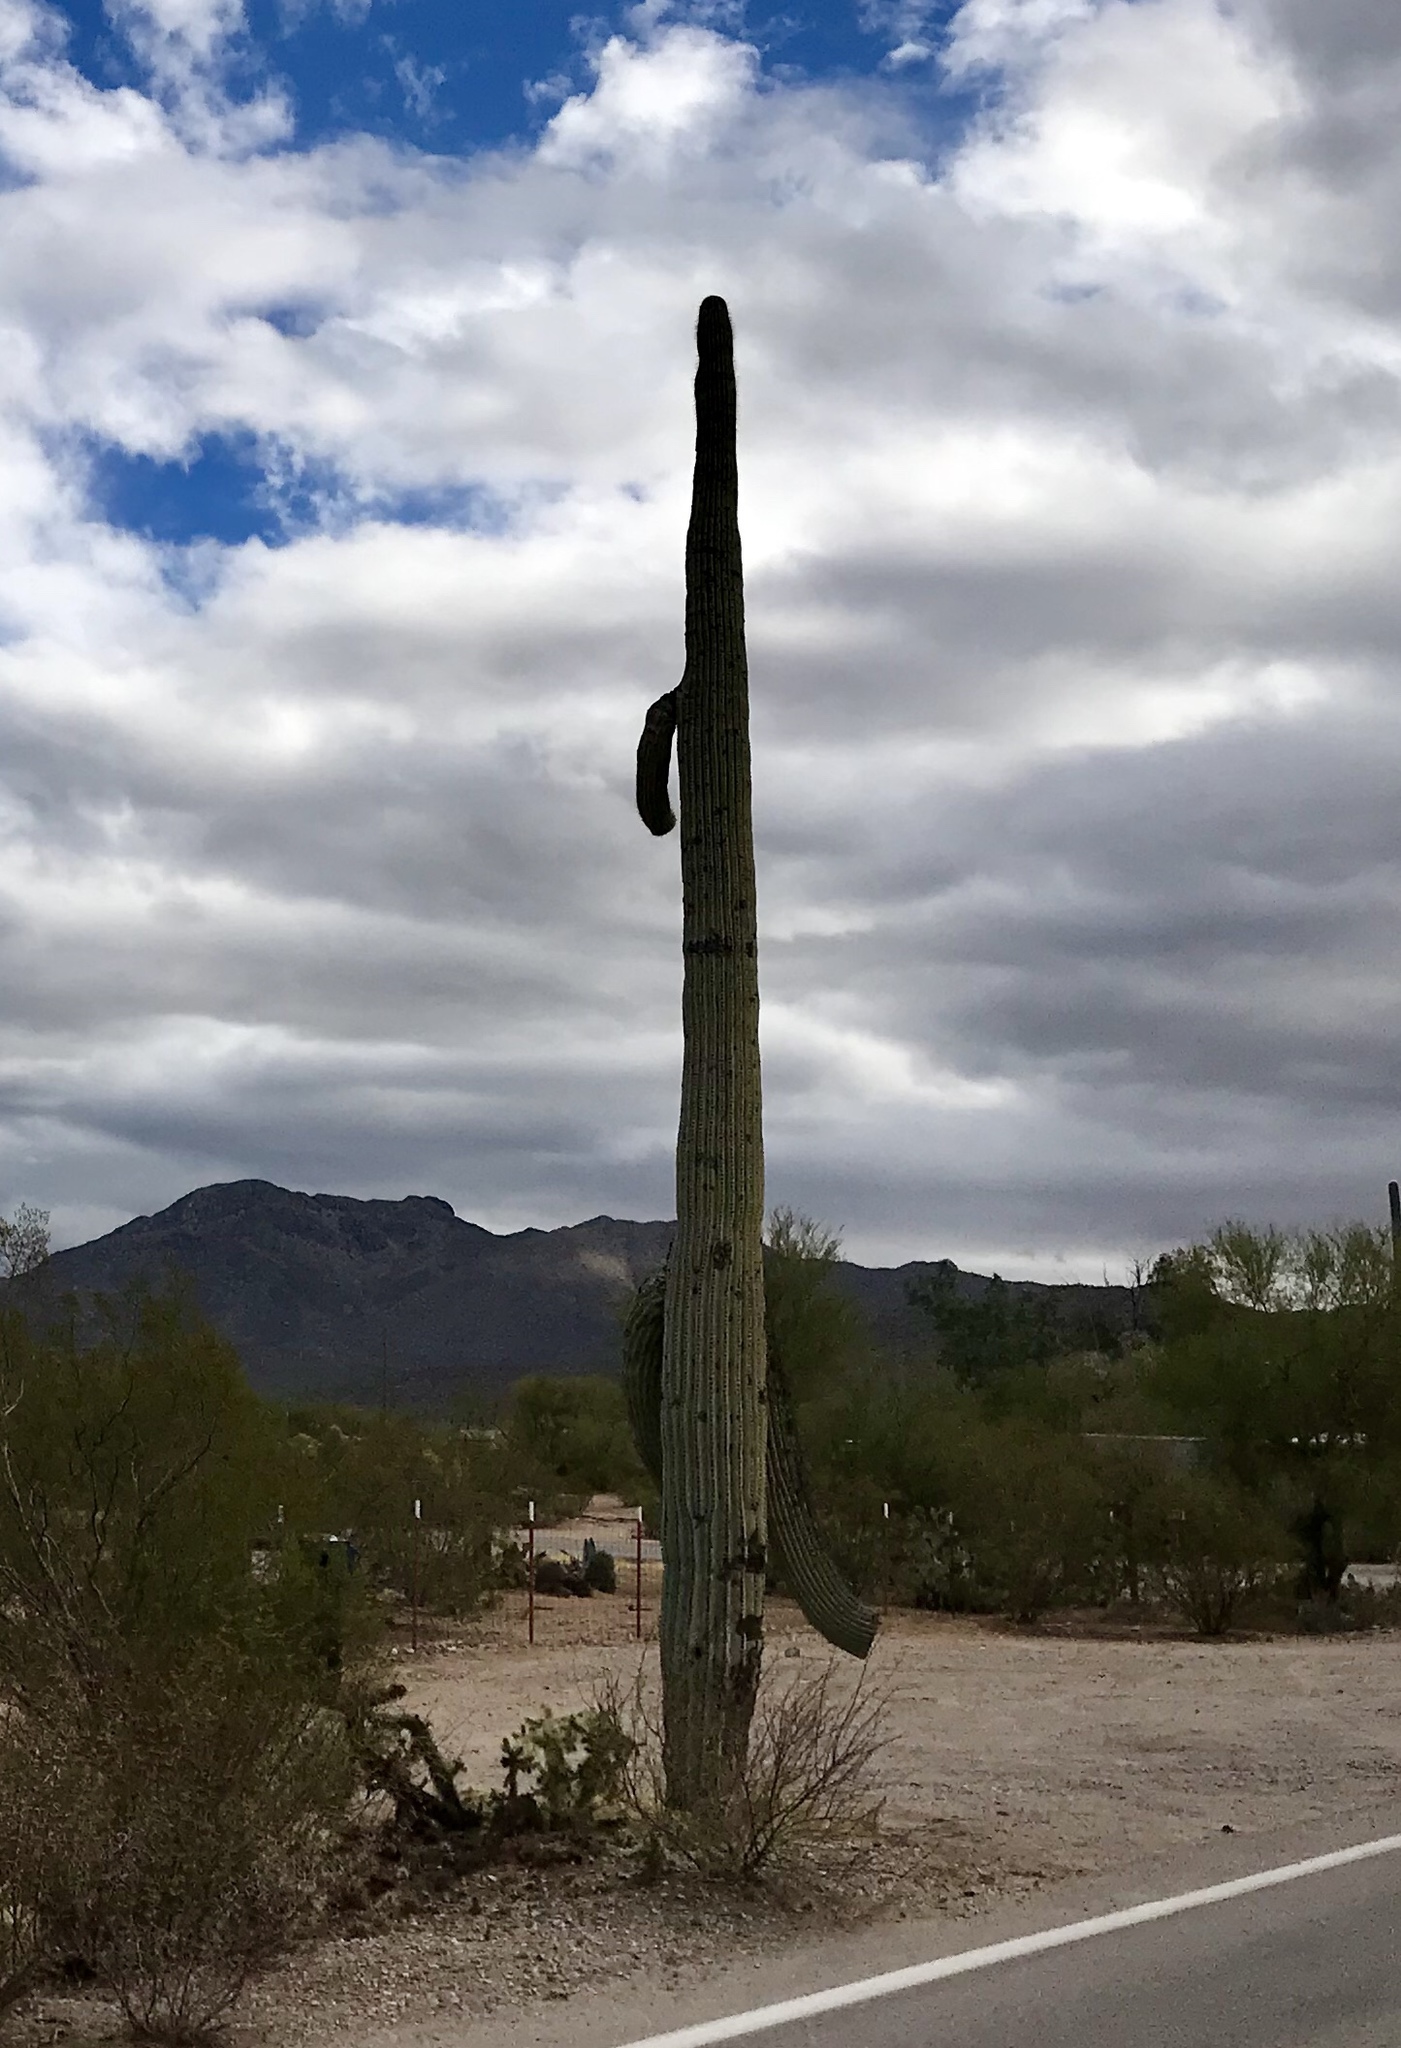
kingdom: Plantae
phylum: Tracheophyta
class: Magnoliopsida
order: Caryophyllales
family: Cactaceae
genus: Carnegiea
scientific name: Carnegiea gigantea
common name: Saguaro
